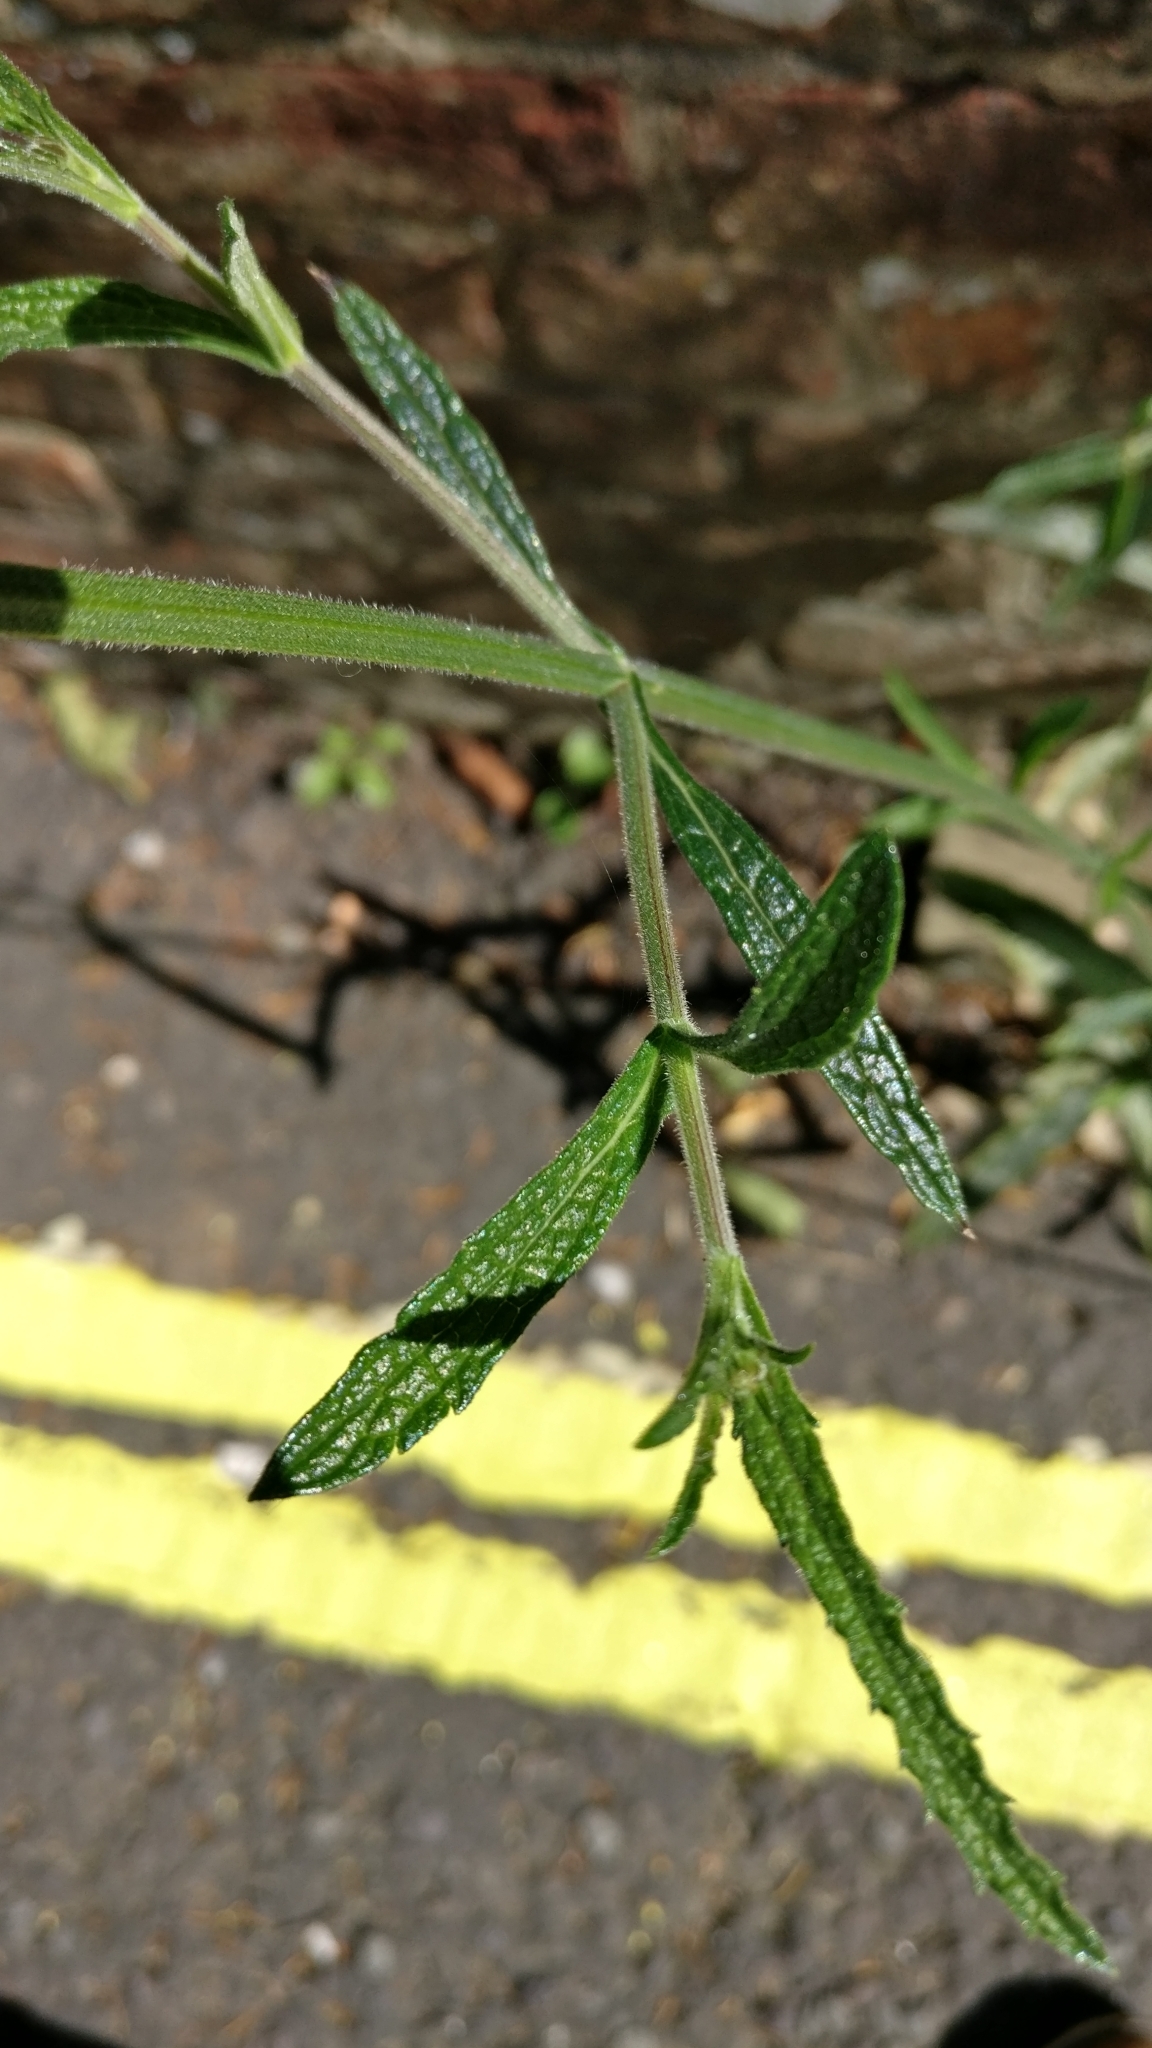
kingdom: Plantae
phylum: Tracheophyta
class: Magnoliopsida
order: Lamiales
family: Verbenaceae
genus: Verbena
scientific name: Verbena bonariensis
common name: Purpletop vervain
